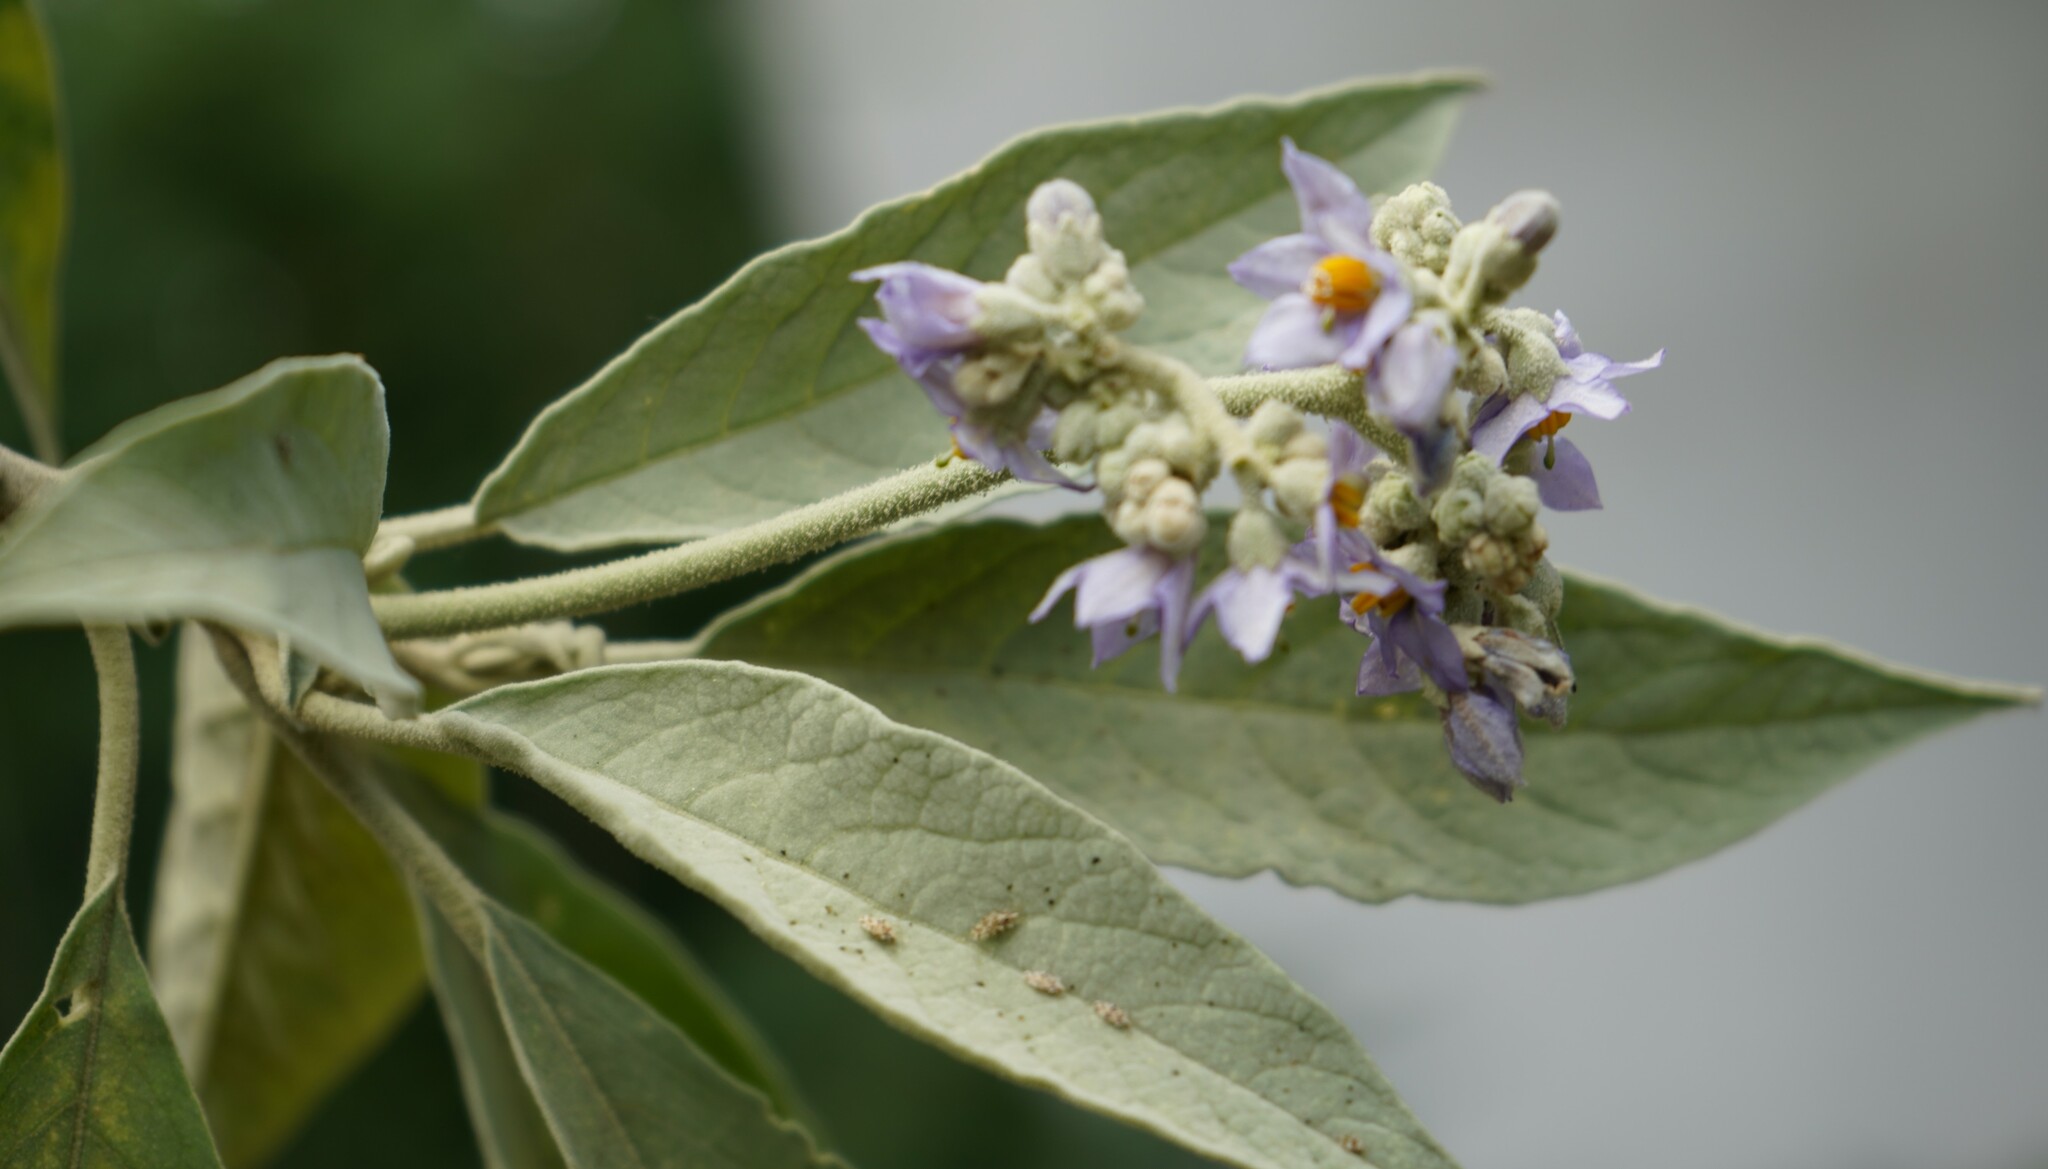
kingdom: Plantae
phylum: Tracheophyta
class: Magnoliopsida
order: Solanales
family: Solanaceae
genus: Solanum
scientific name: Solanum granulosoleprosum
